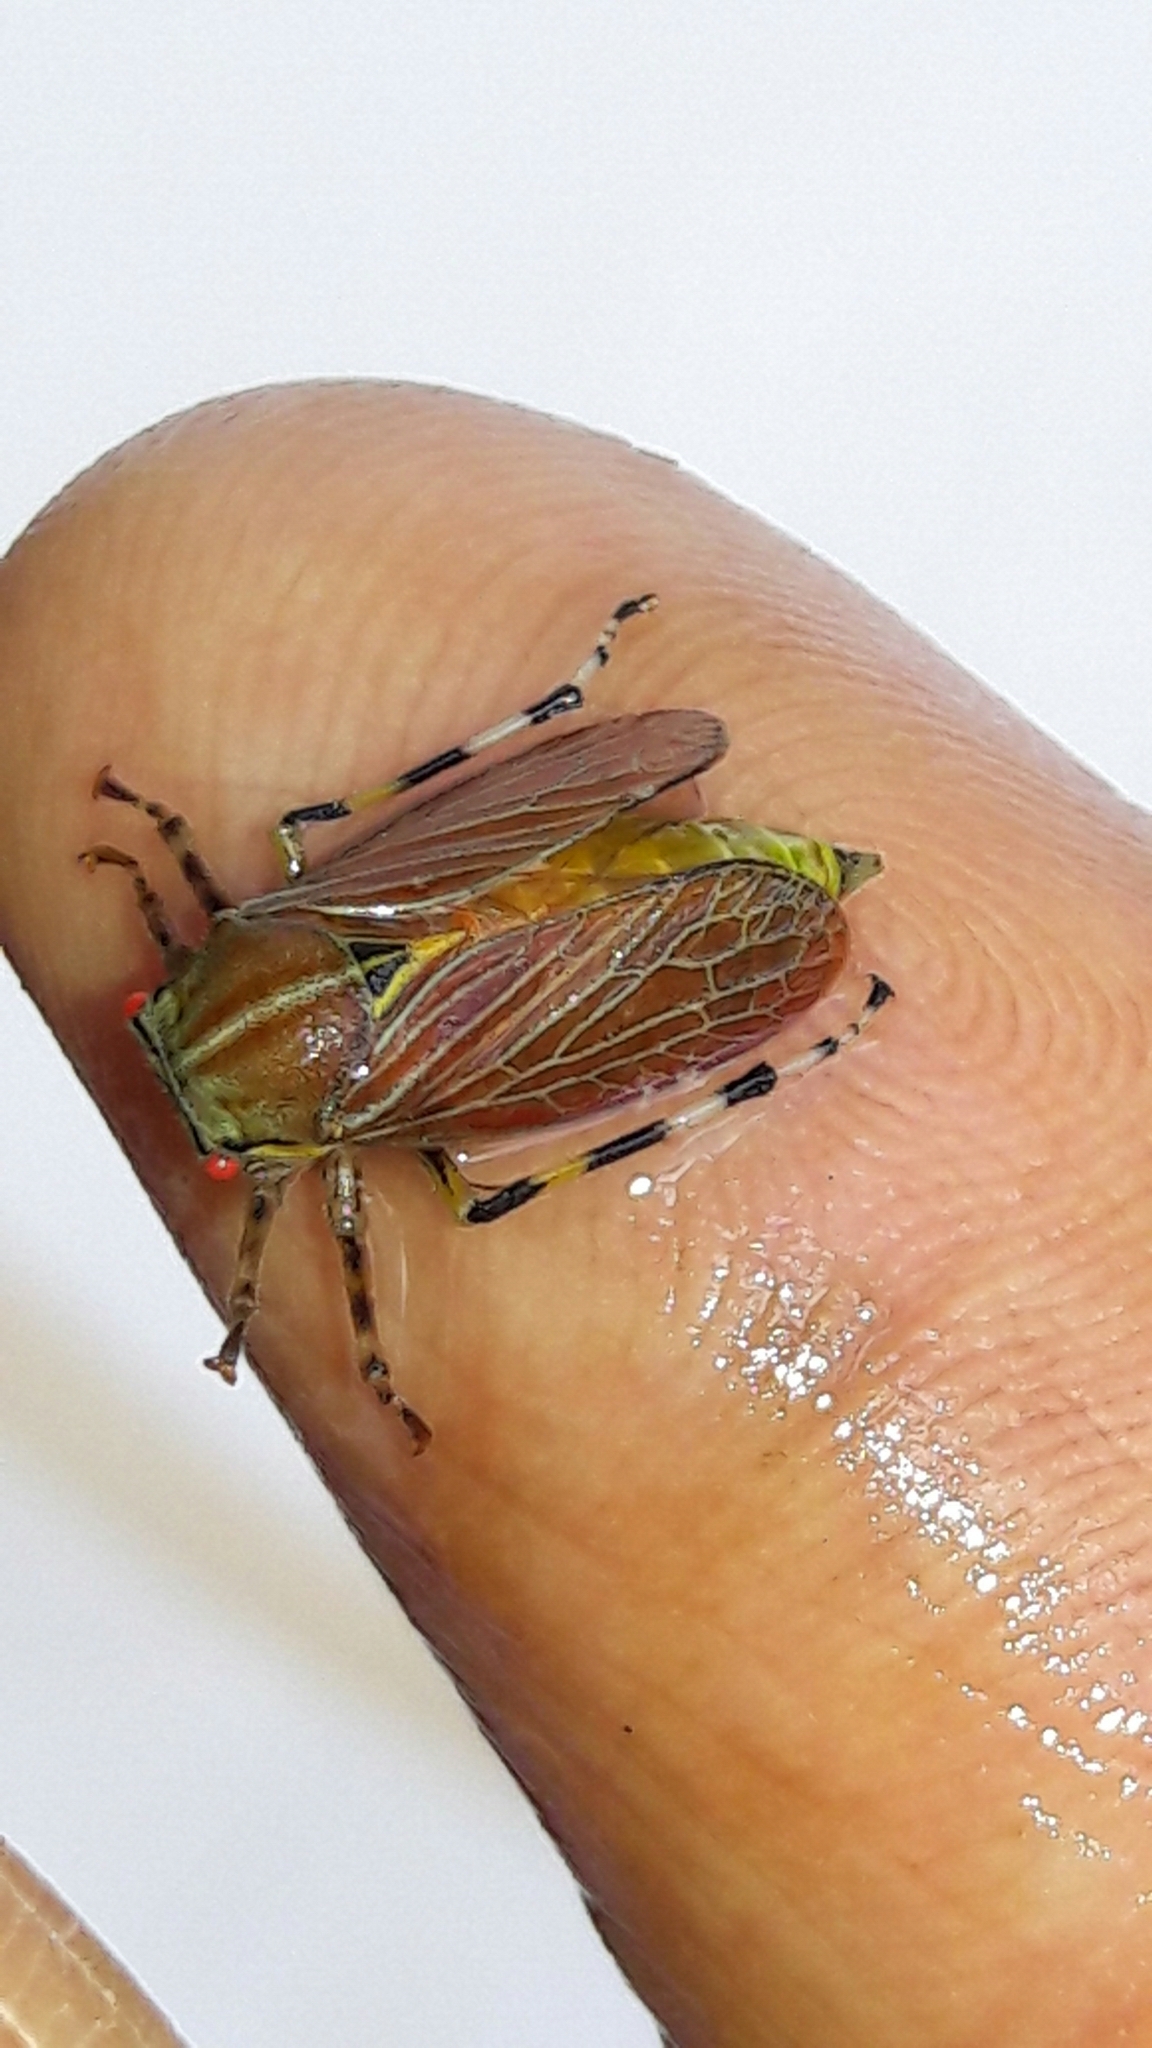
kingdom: Animalia
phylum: Arthropoda
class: Insecta
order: Hemiptera
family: Aetalionidae
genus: Aetalion
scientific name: Aetalion reticulatum
